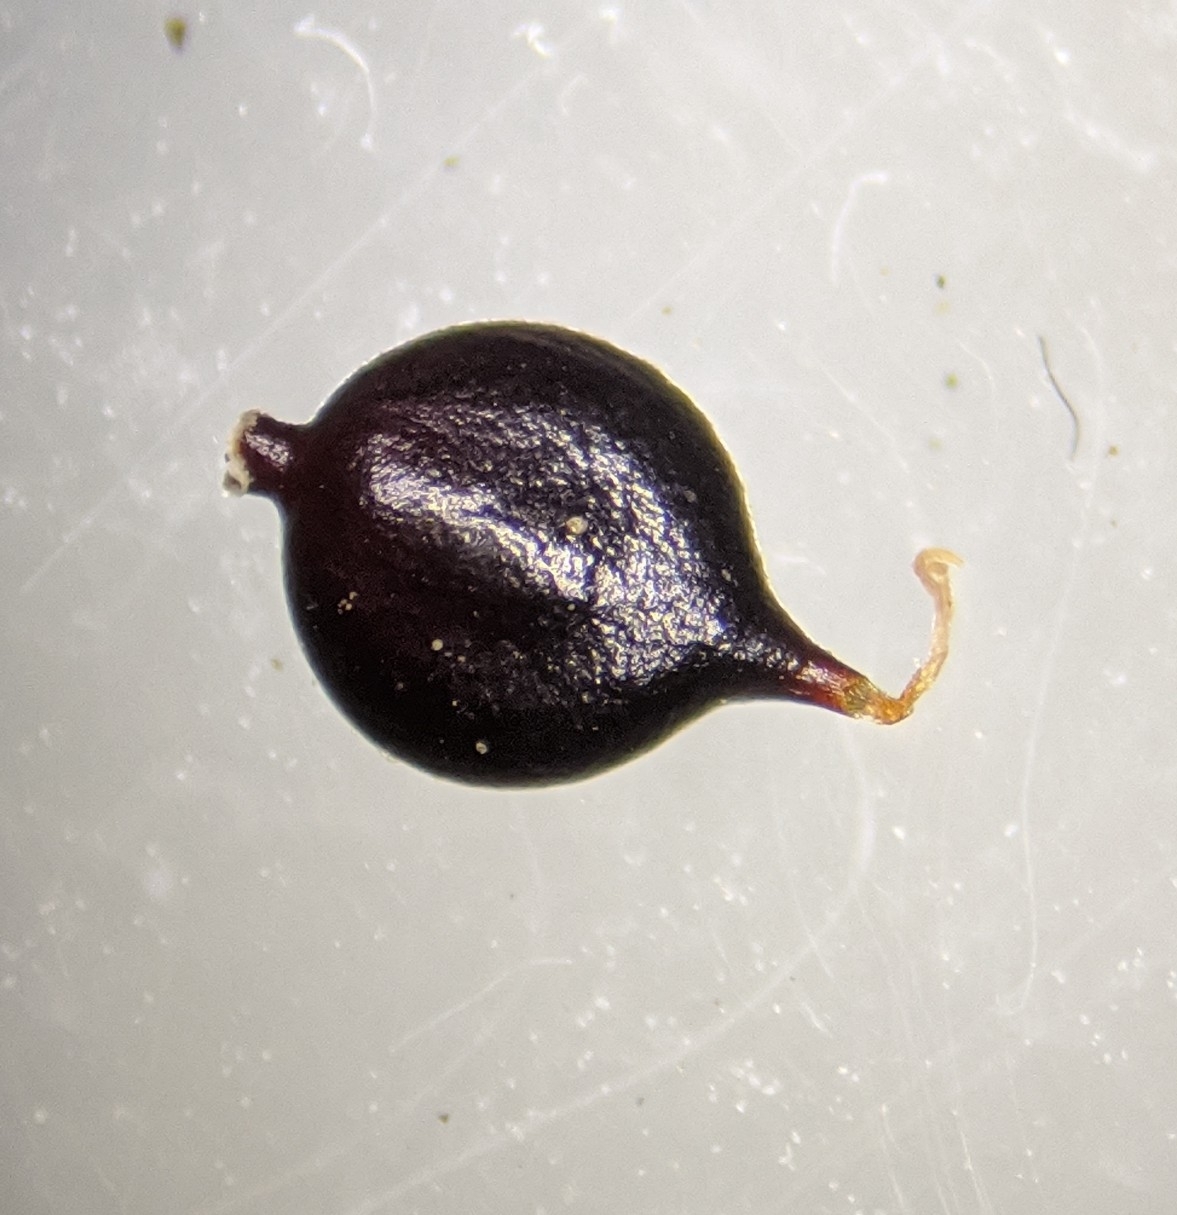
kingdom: Plantae
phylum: Tracheophyta
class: Magnoliopsida
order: Caryophyllales
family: Polygonaceae
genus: Persicaria
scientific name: Persicaria bicornis
